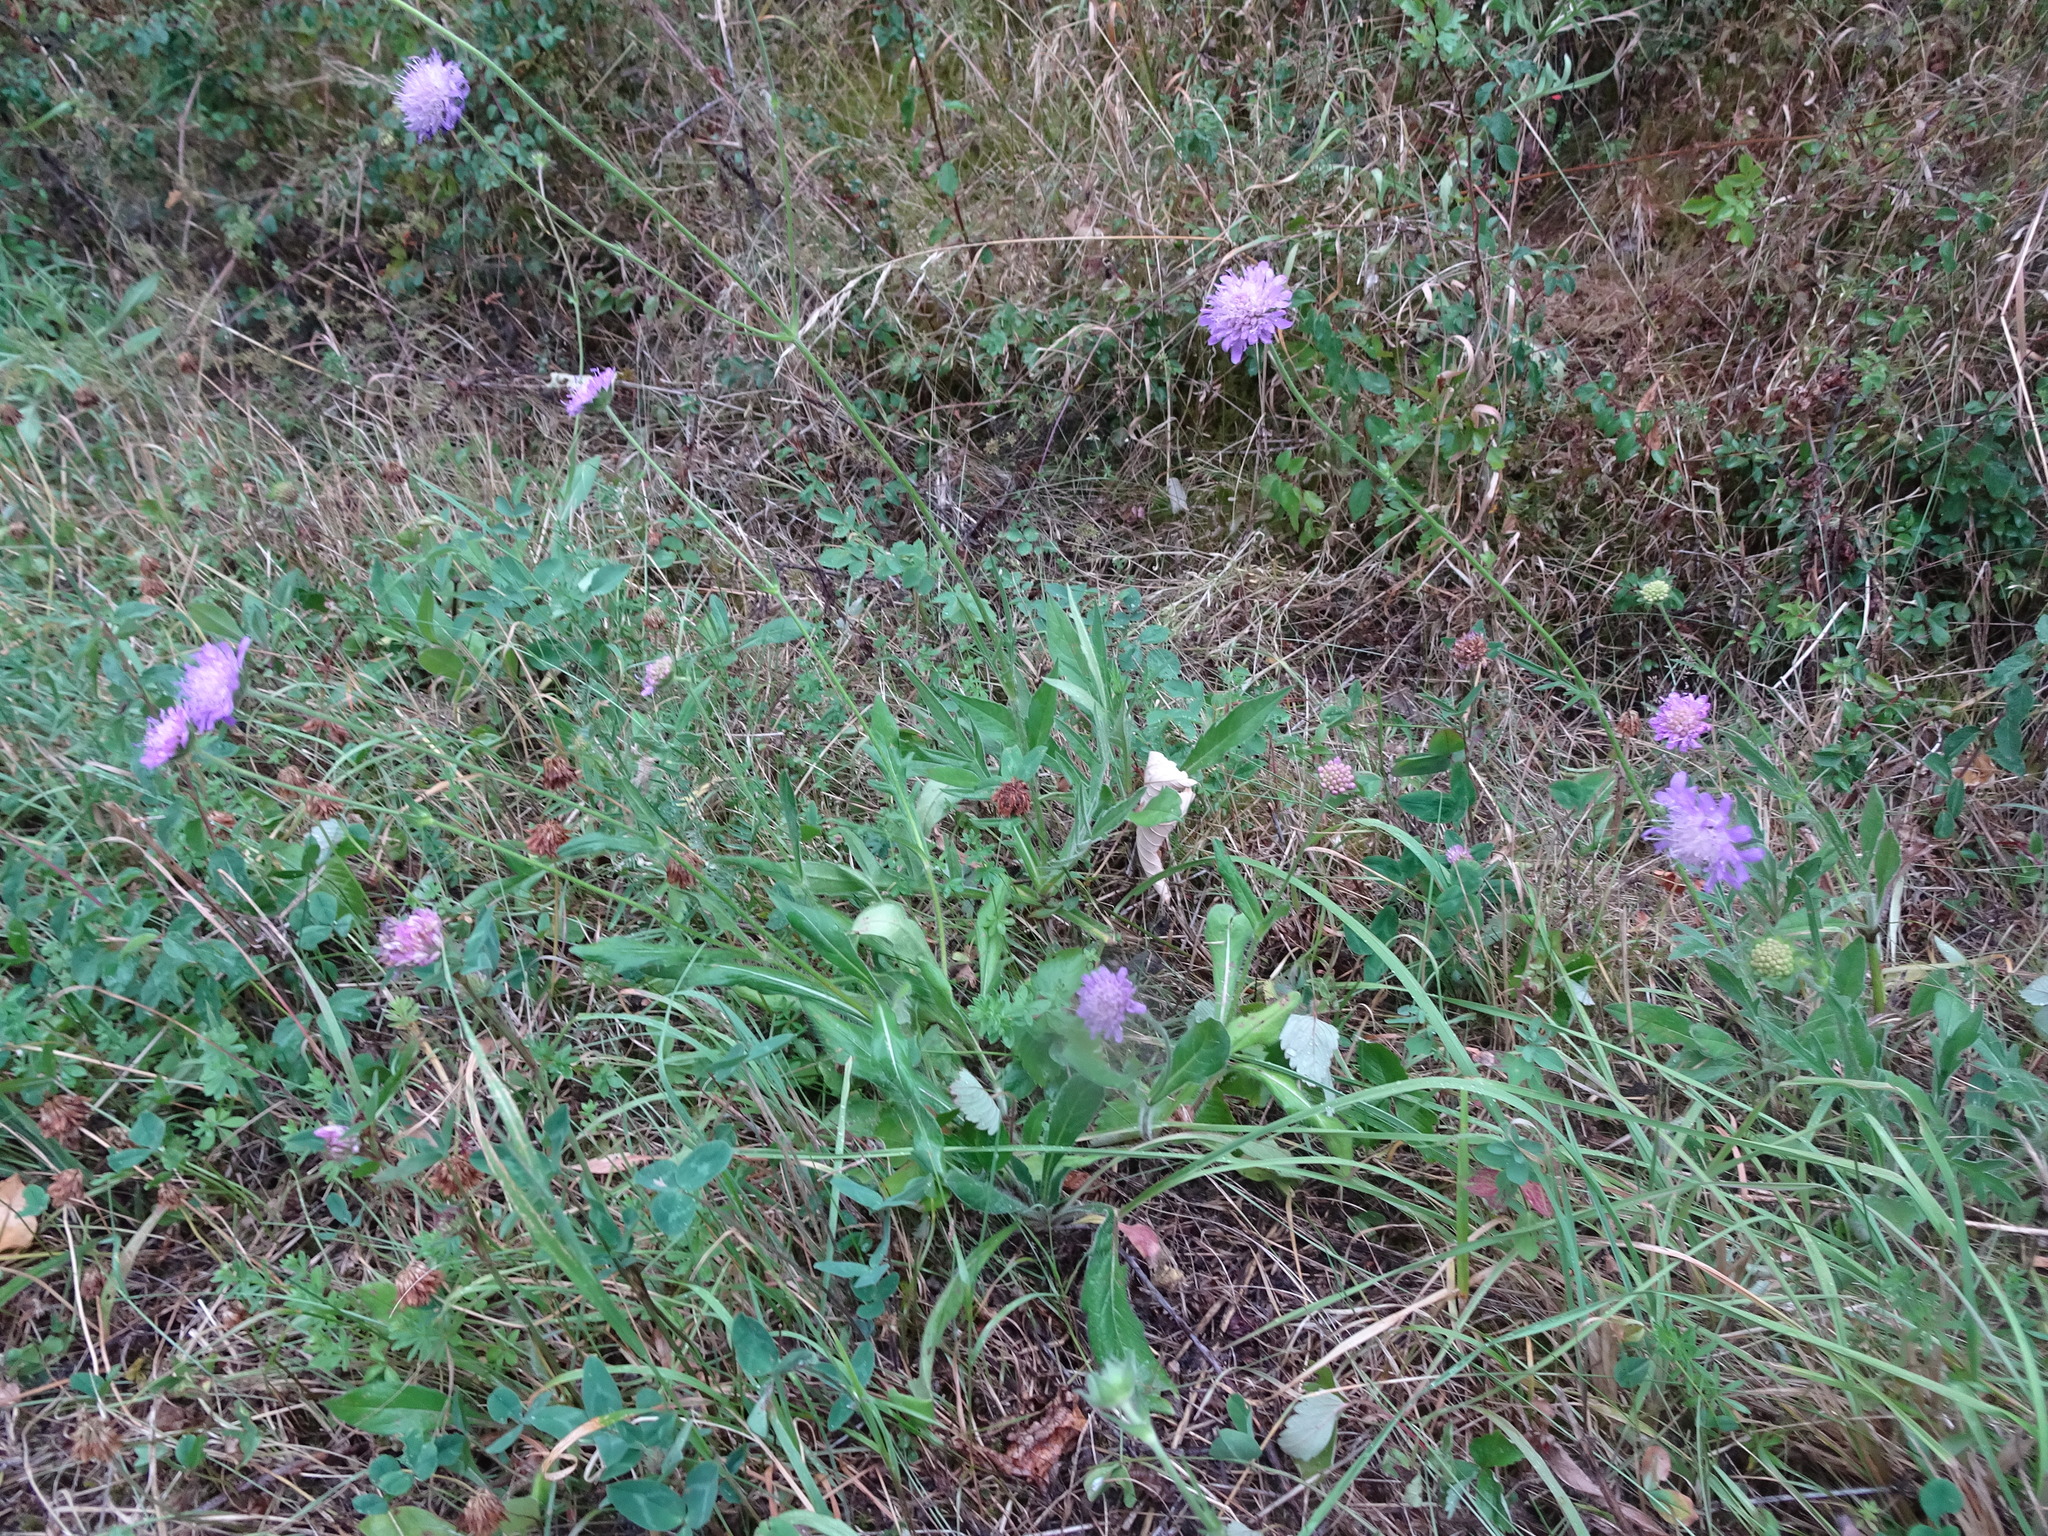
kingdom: Plantae
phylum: Tracheophyta
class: Magnoliopsida
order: Dipsacales
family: Caprifoliaceae
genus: Knautia
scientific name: Knautia arvensis
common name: Field scabiosa
